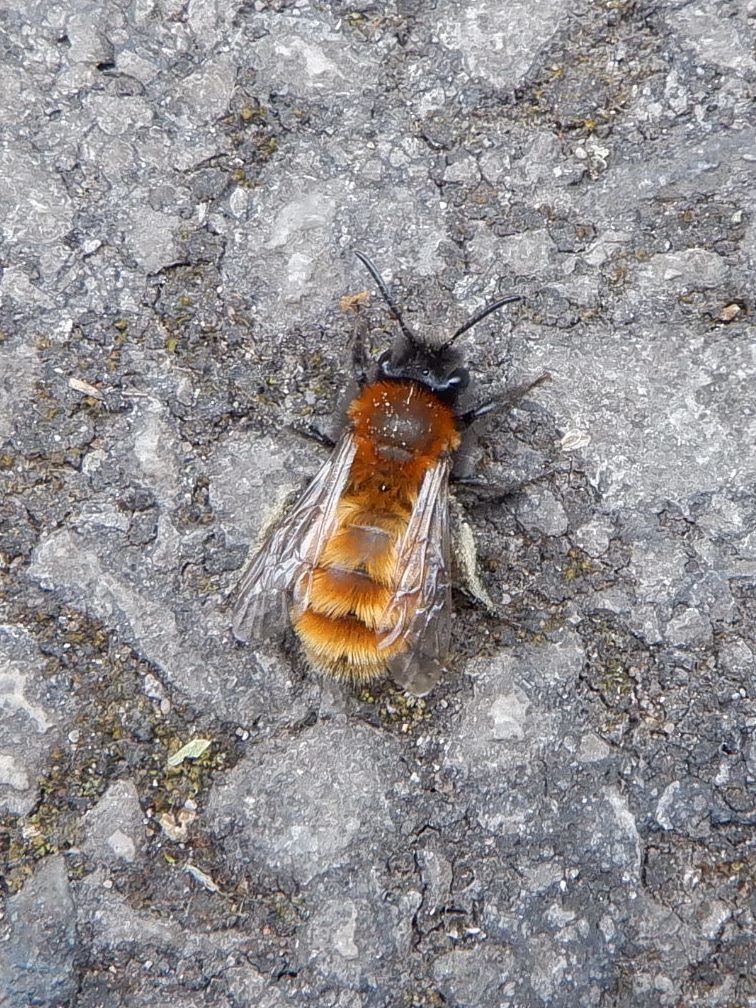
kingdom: Animalia
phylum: Arthropoda
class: Insecta
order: Hymenoptera
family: Andrenidae
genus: Andrena
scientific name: Andrena fulva
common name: Tawny mining bee
